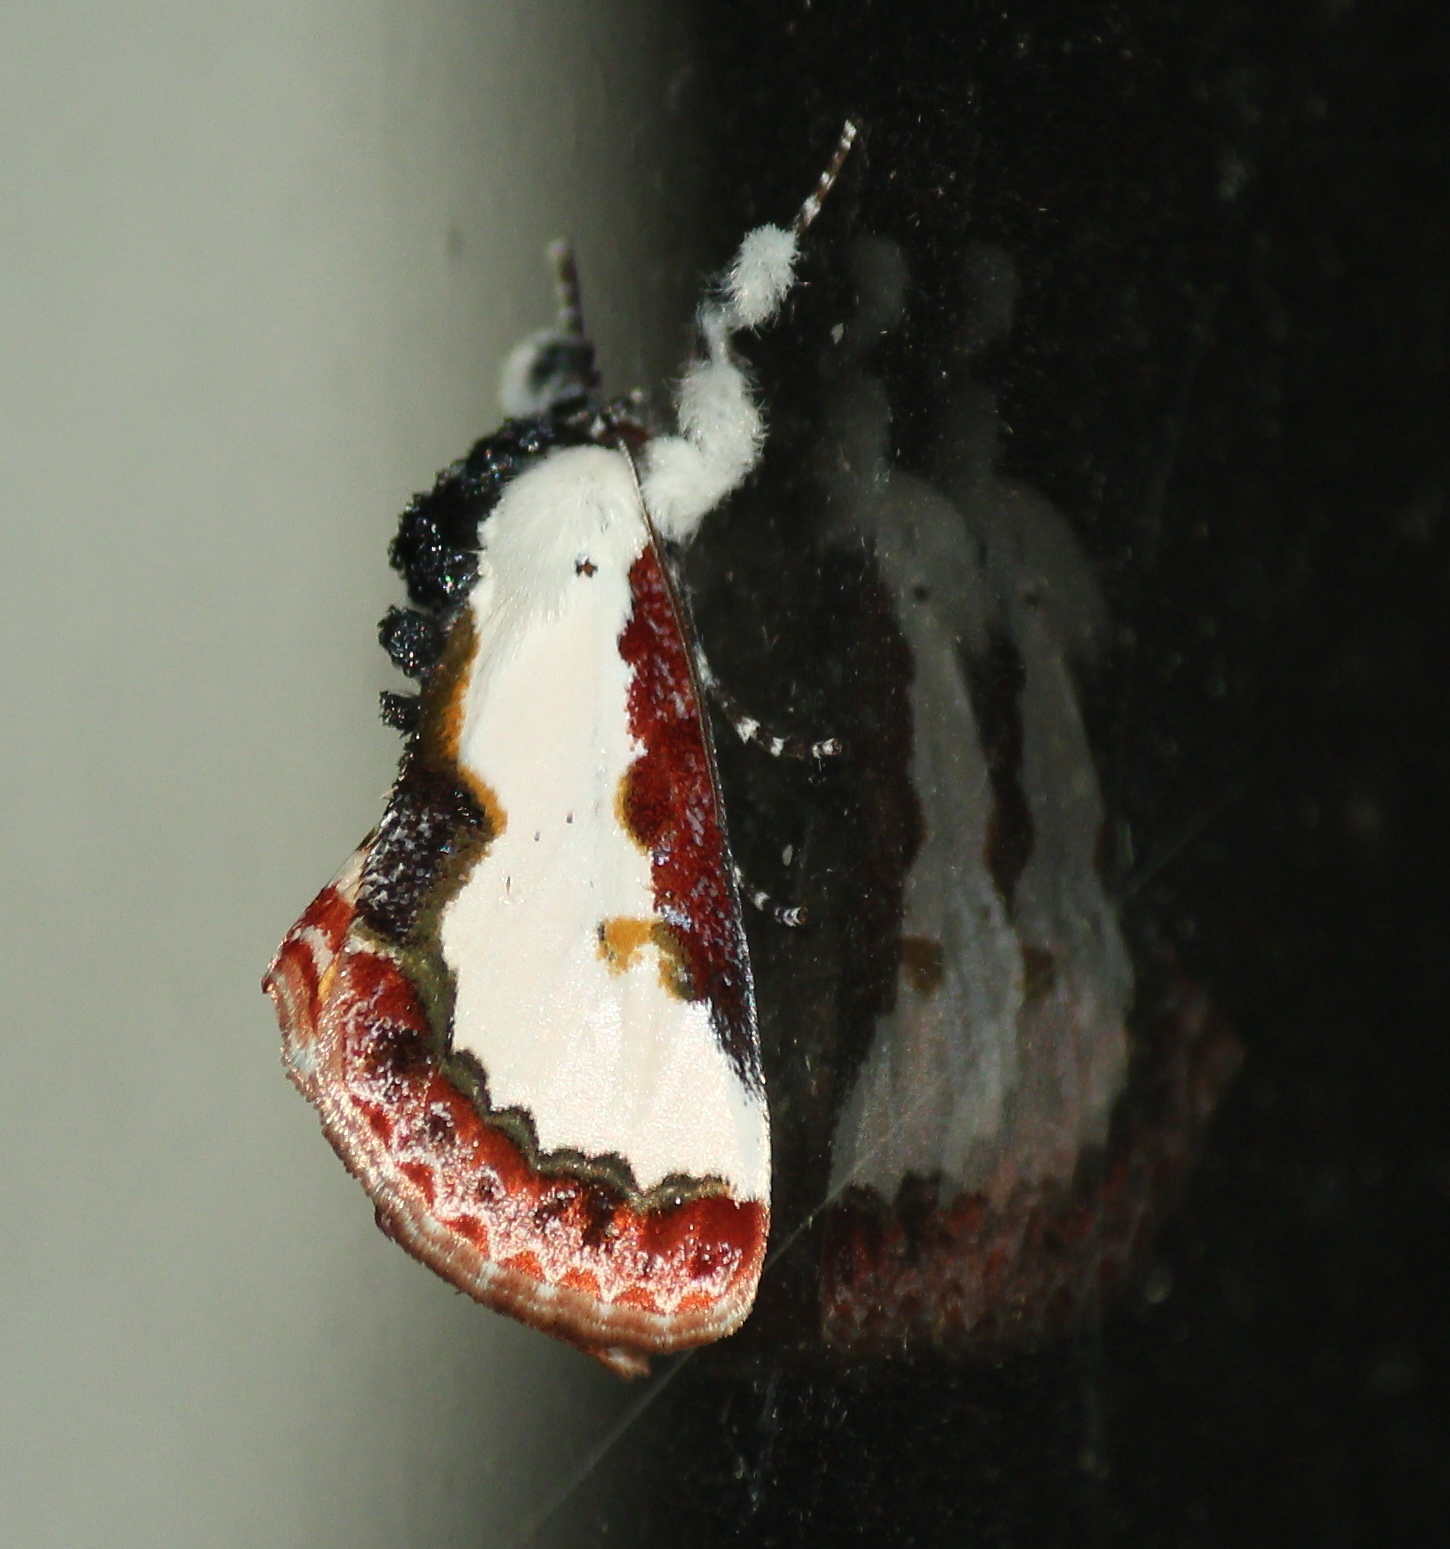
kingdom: Animalia
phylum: Arthropoda
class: Insecta
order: Lepidoptera
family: Noctuidae
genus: Eudryas
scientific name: Eudryas unio
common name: Pearly wood-nymph
